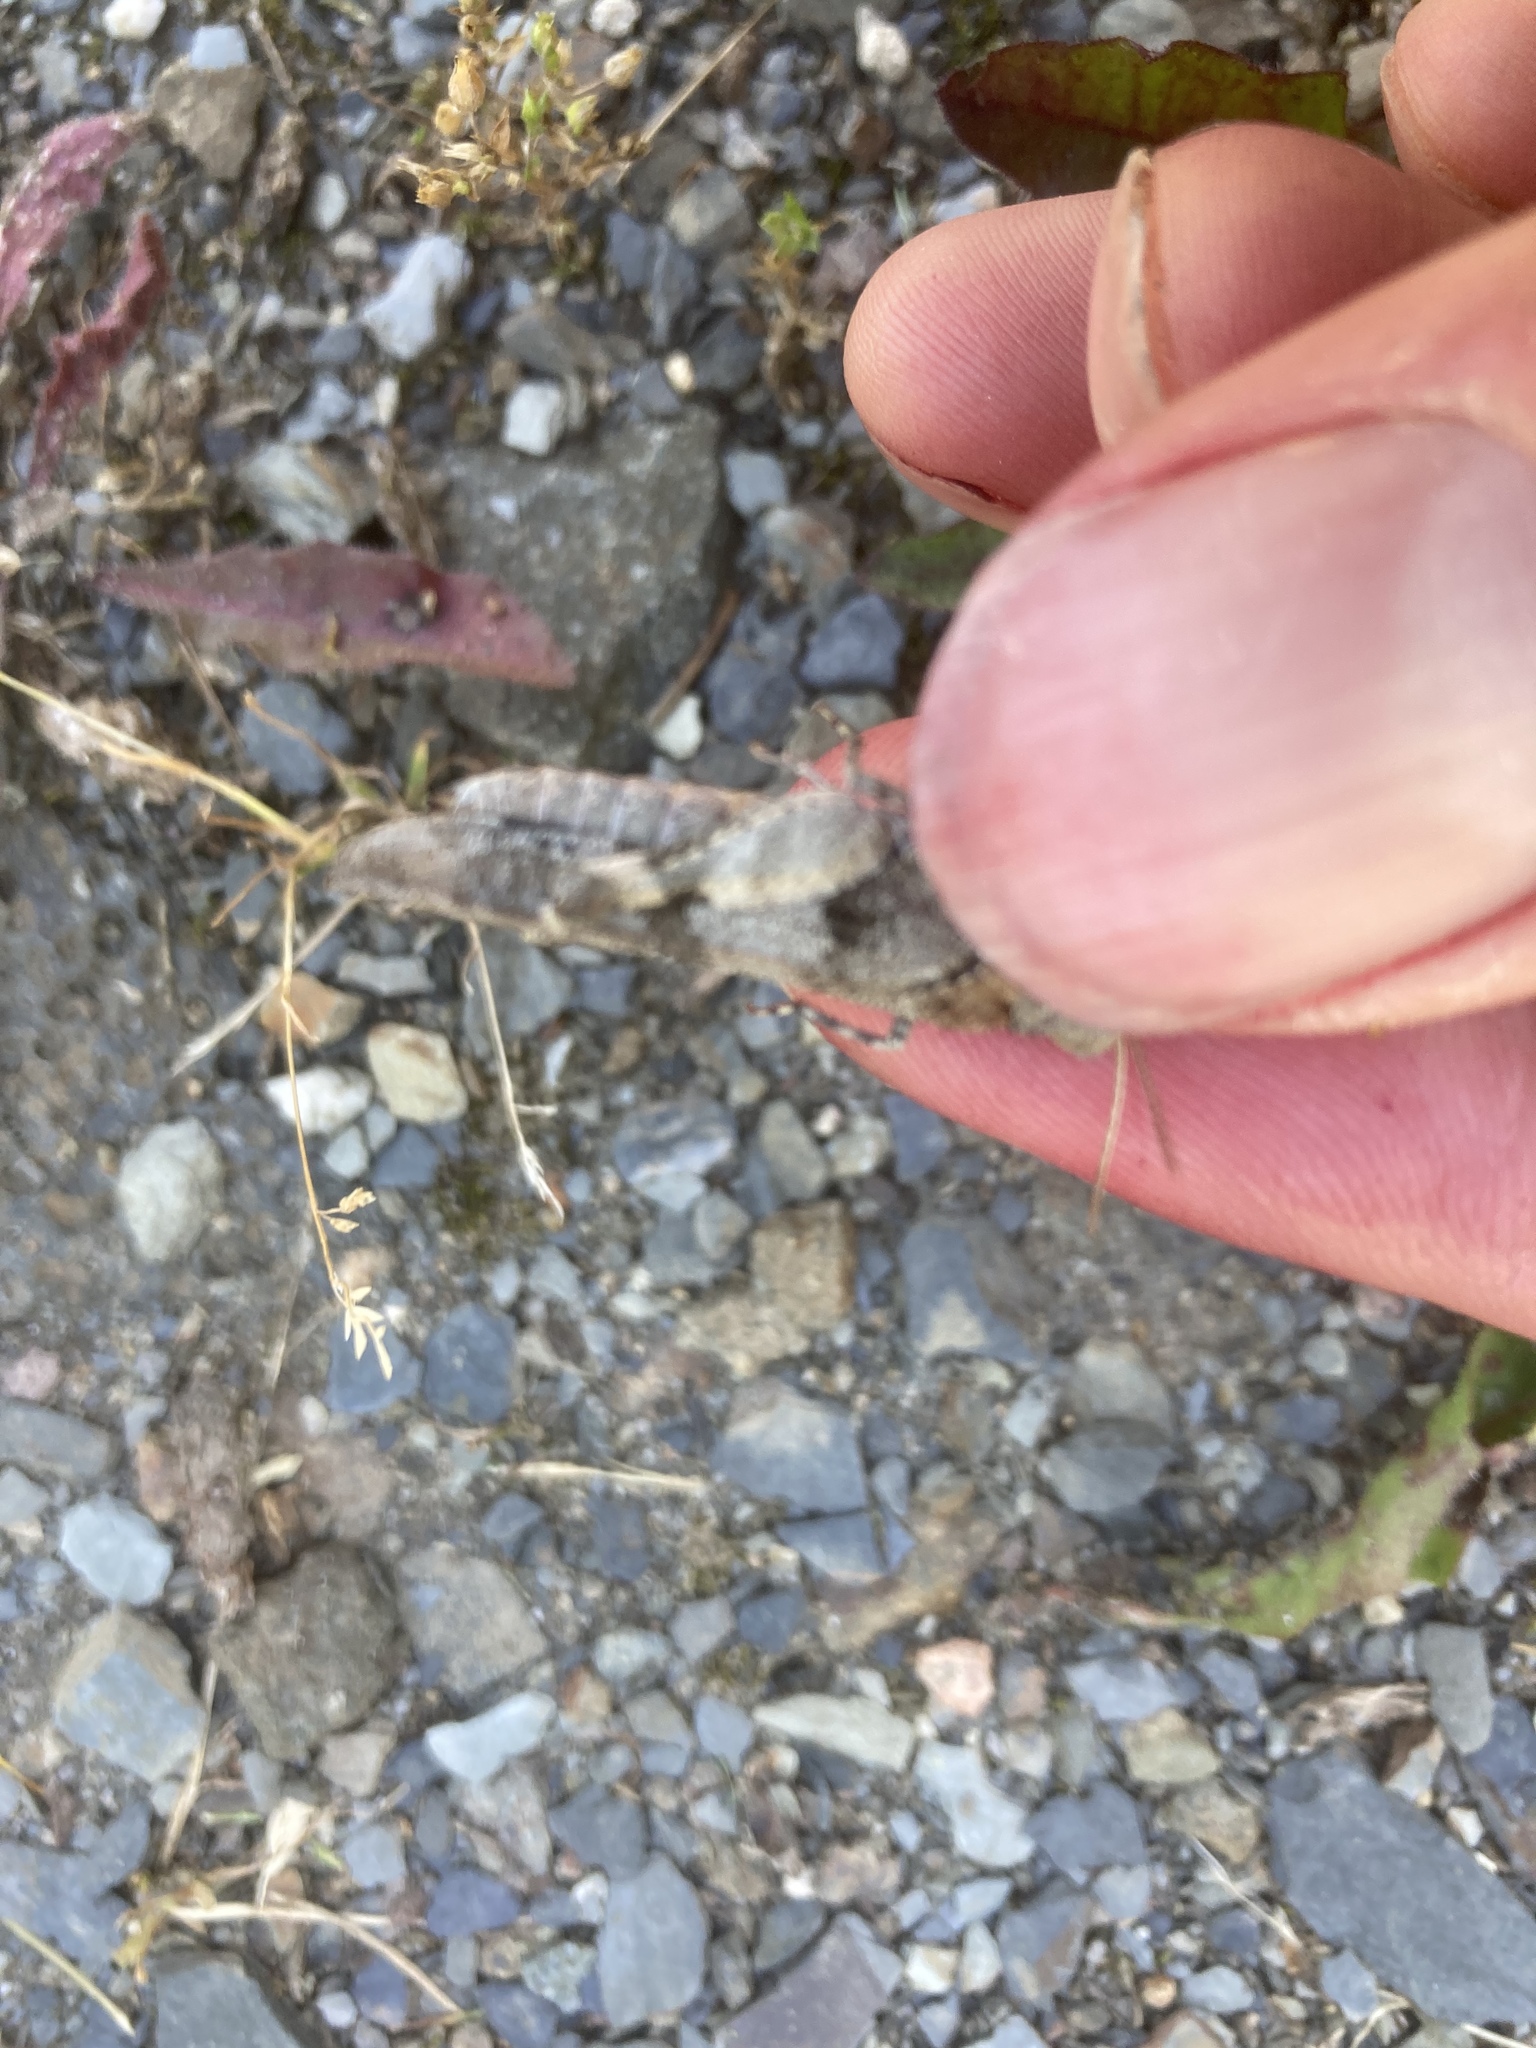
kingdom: Animalia
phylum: Arthropoda
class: Insecta
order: Orthoptera
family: Acrididae
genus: Oedipoda
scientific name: Oedipoda caerulescens
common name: Blue-winged grasshopper
